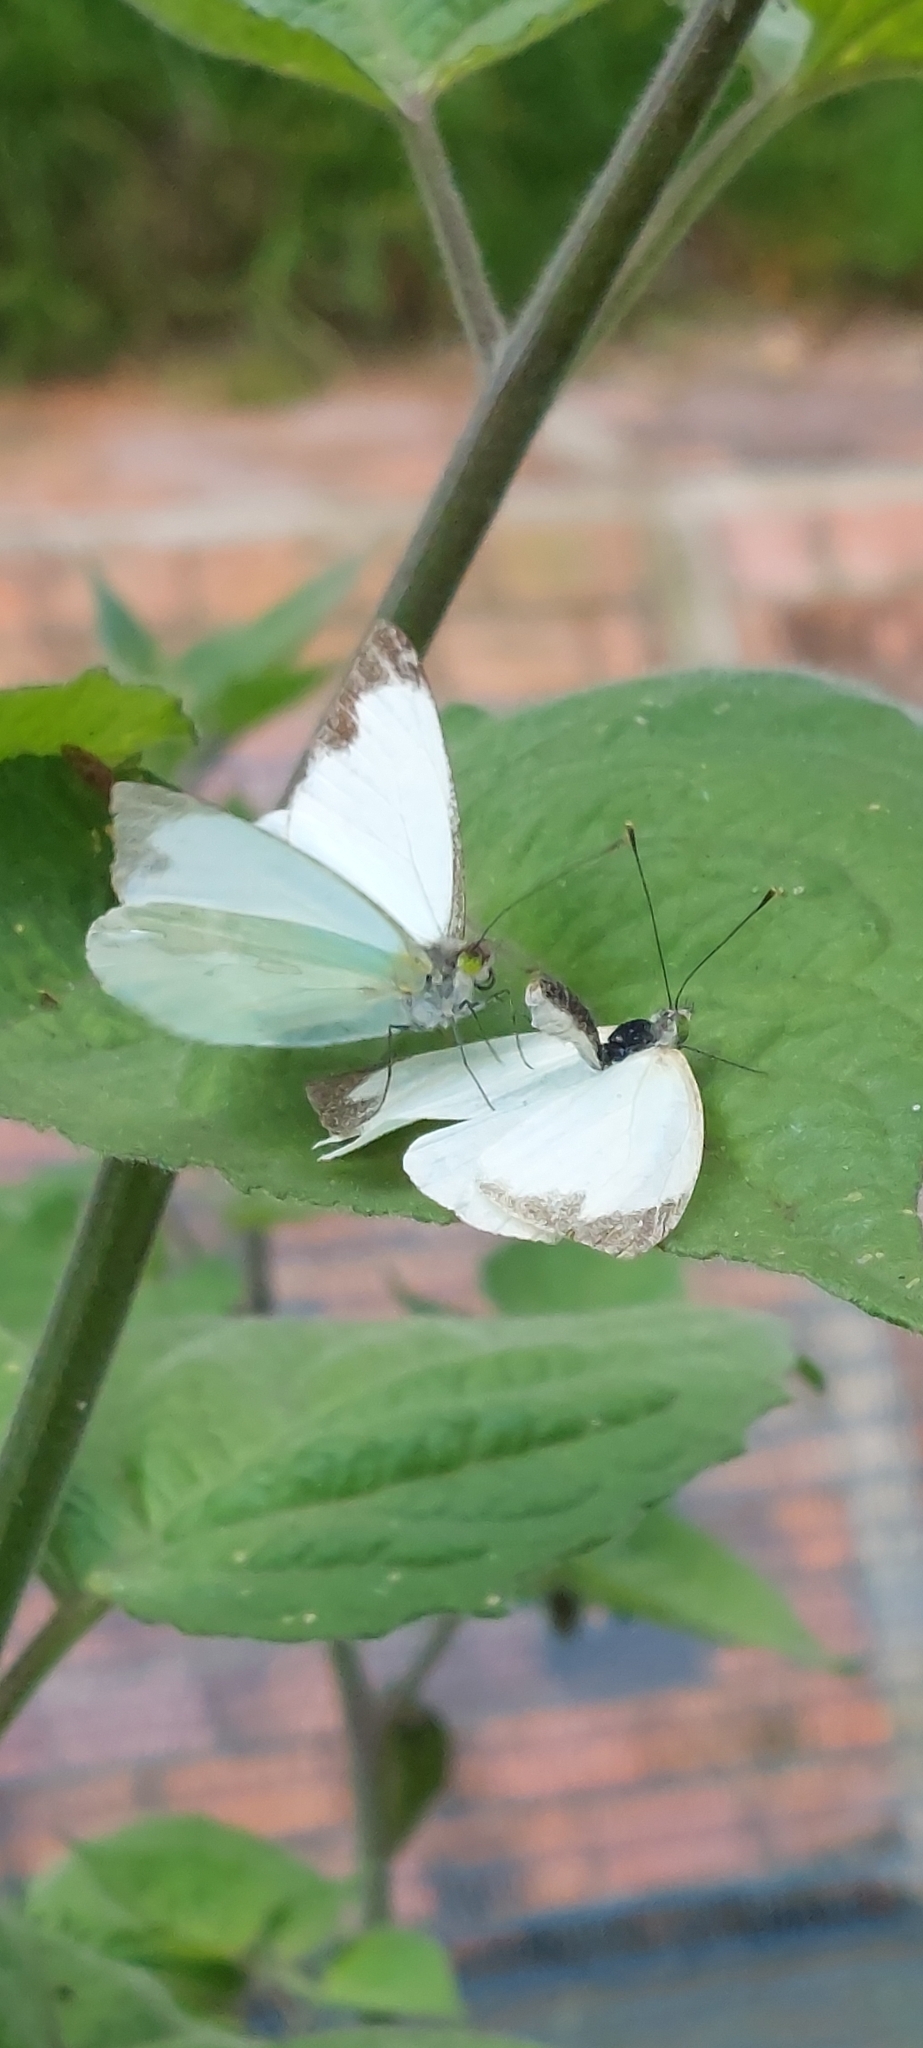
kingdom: Animalia
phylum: Arthropoda
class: Insecta
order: Lepidoptera
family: Pieridae
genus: Leptophobia
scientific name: Leptophobia aripa
